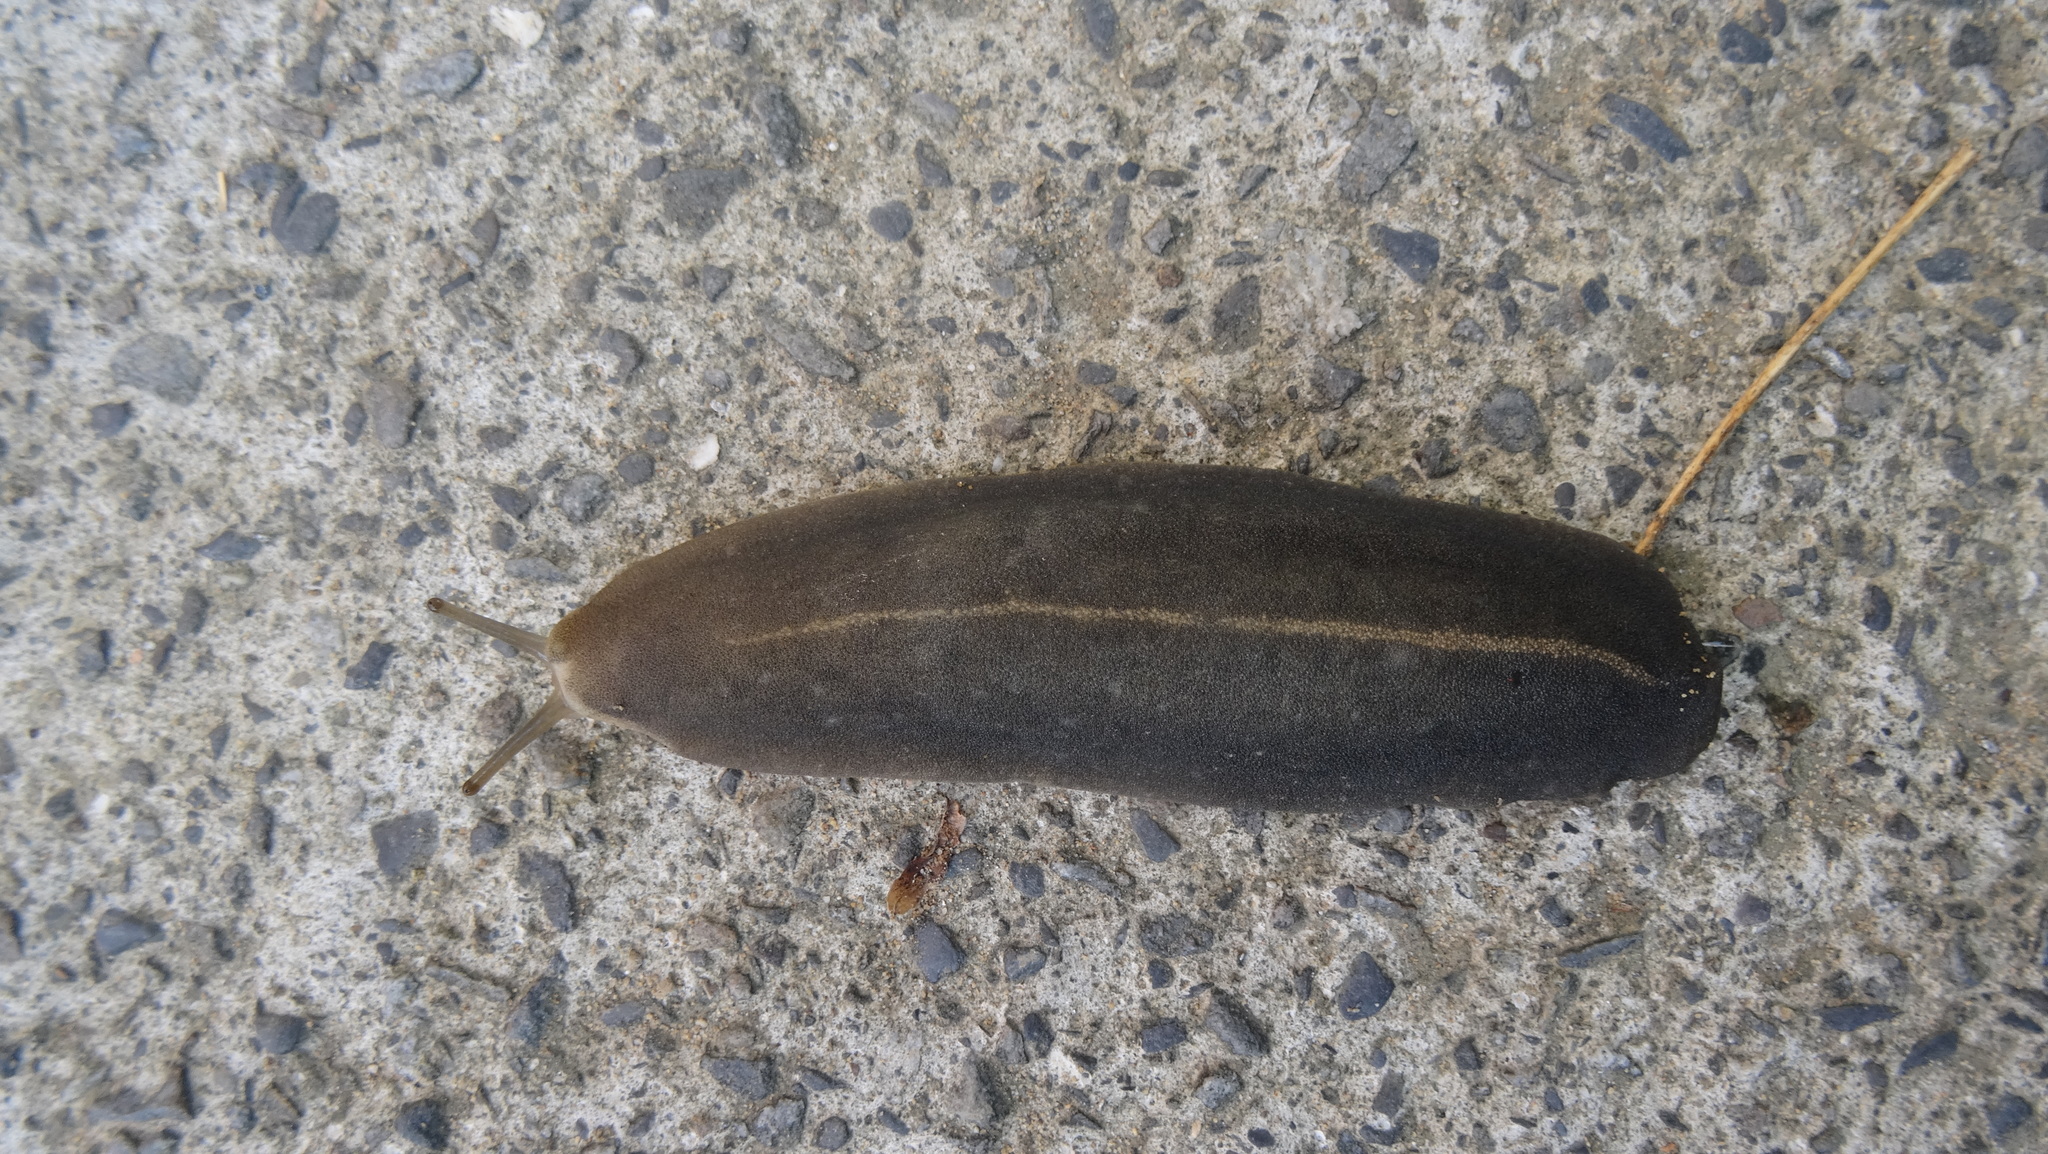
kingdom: Animalia
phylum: Mollusca
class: Gastropoda
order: Systellommatophora
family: Veronicellidae
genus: Laevicaulis
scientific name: Laevicaulis alte
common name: Tropical leatherleaf
